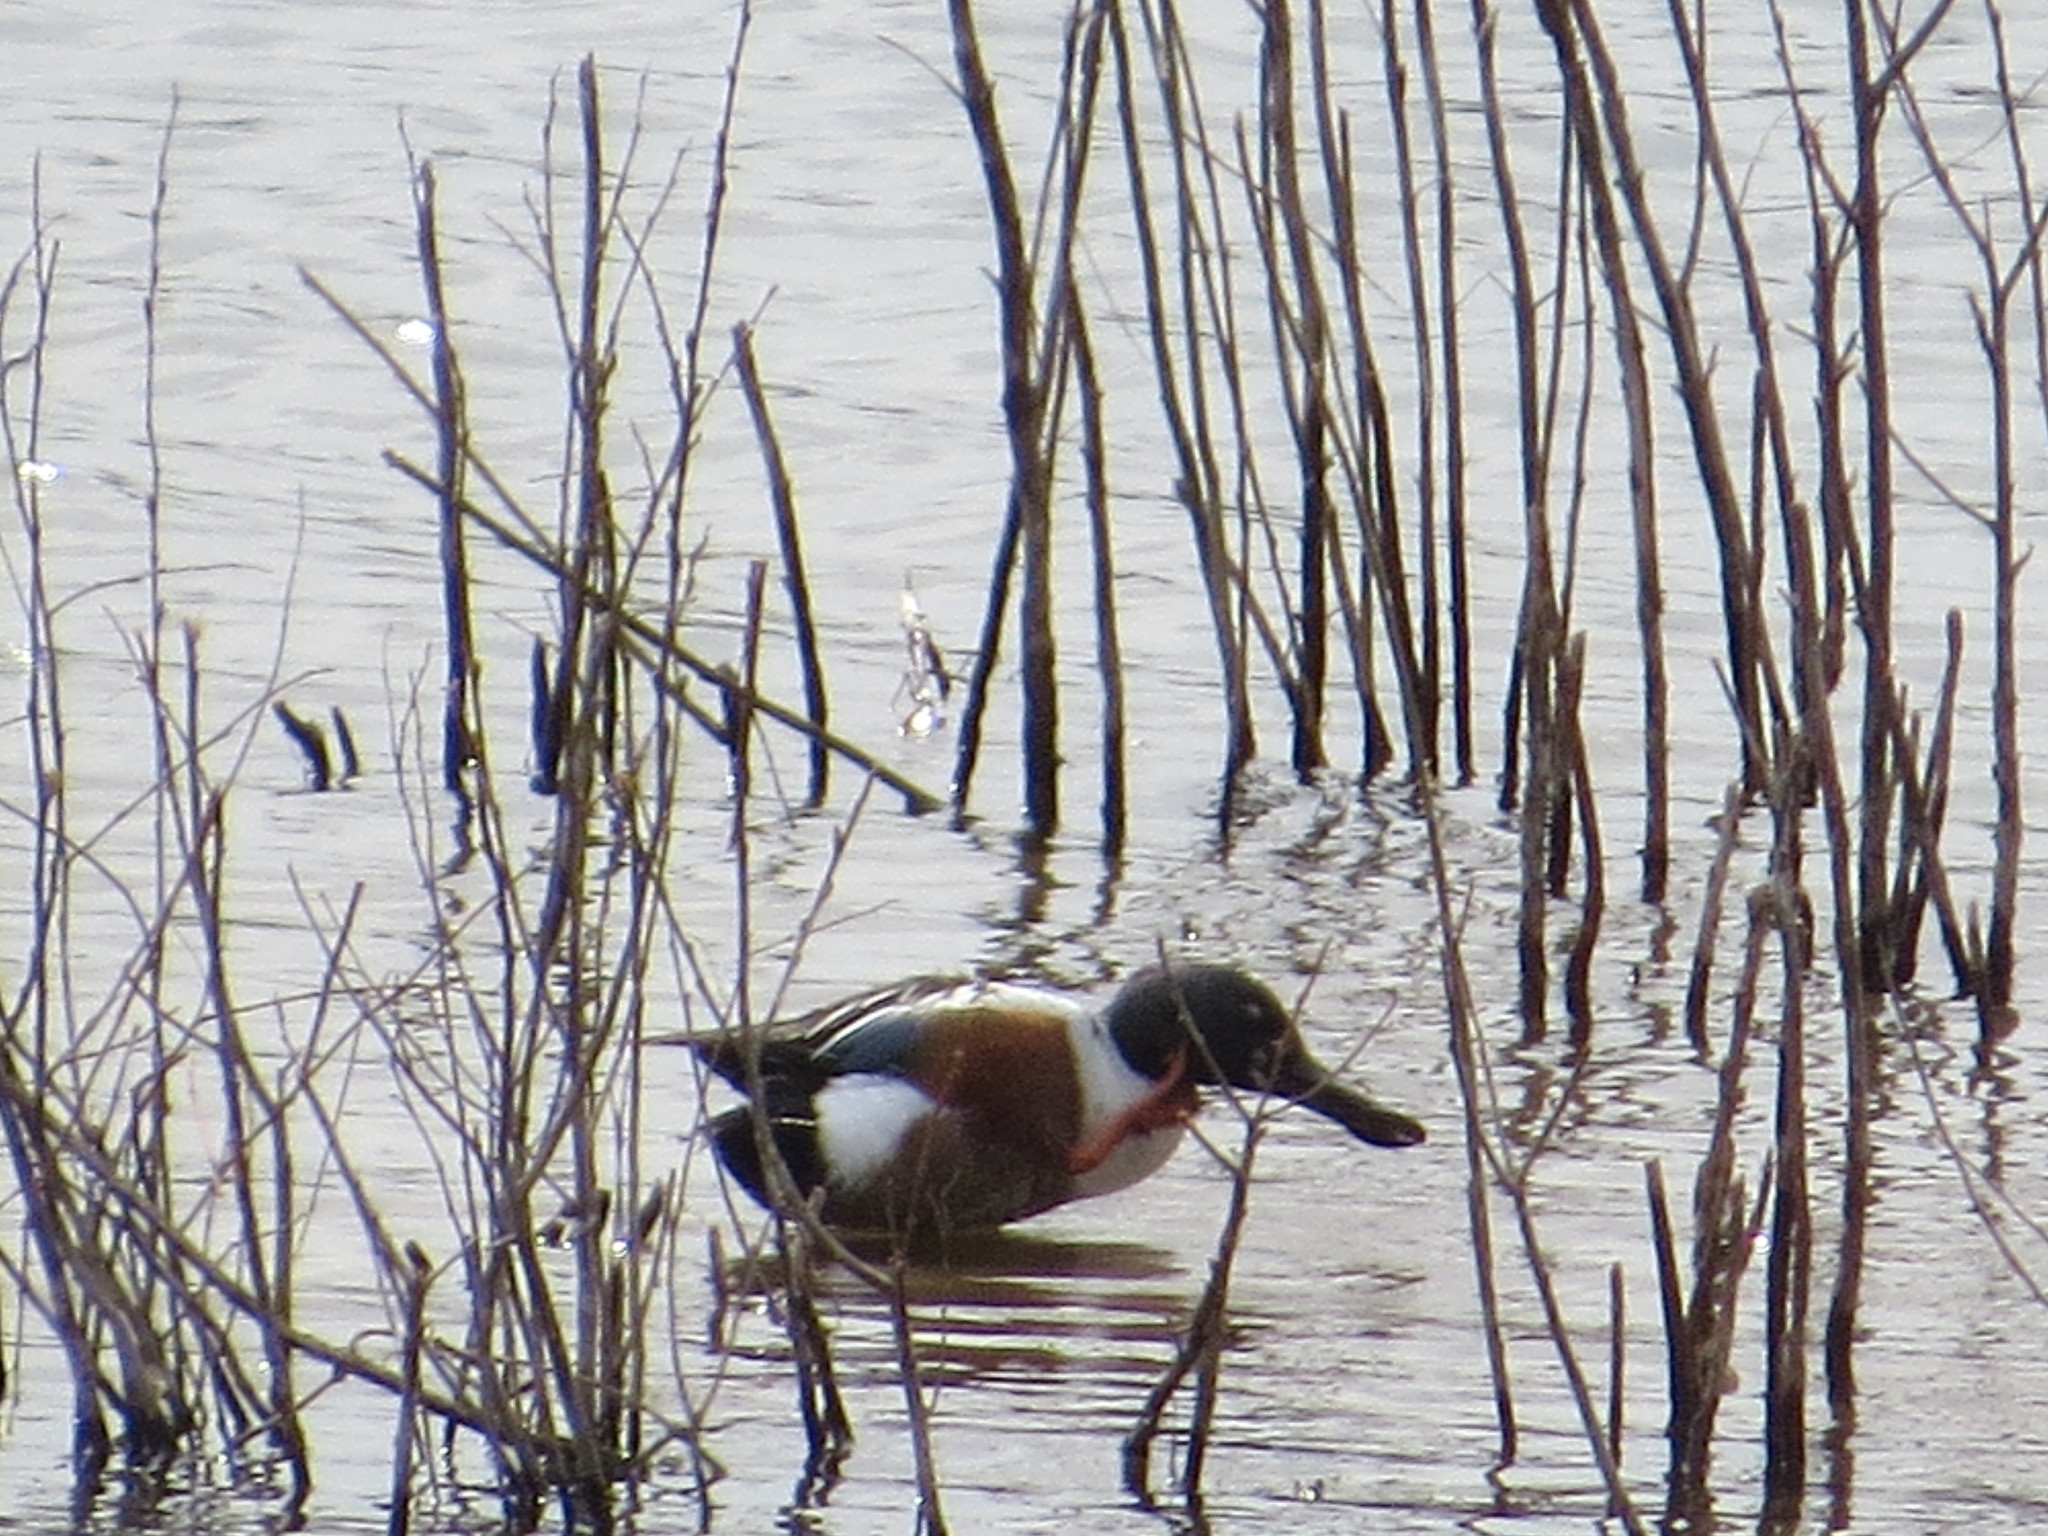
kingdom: Animalia
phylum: Chordata
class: Aves
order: Anseriformes
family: Anatidae
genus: Spatula
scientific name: Spatula clypeata
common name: Northern shoveler
